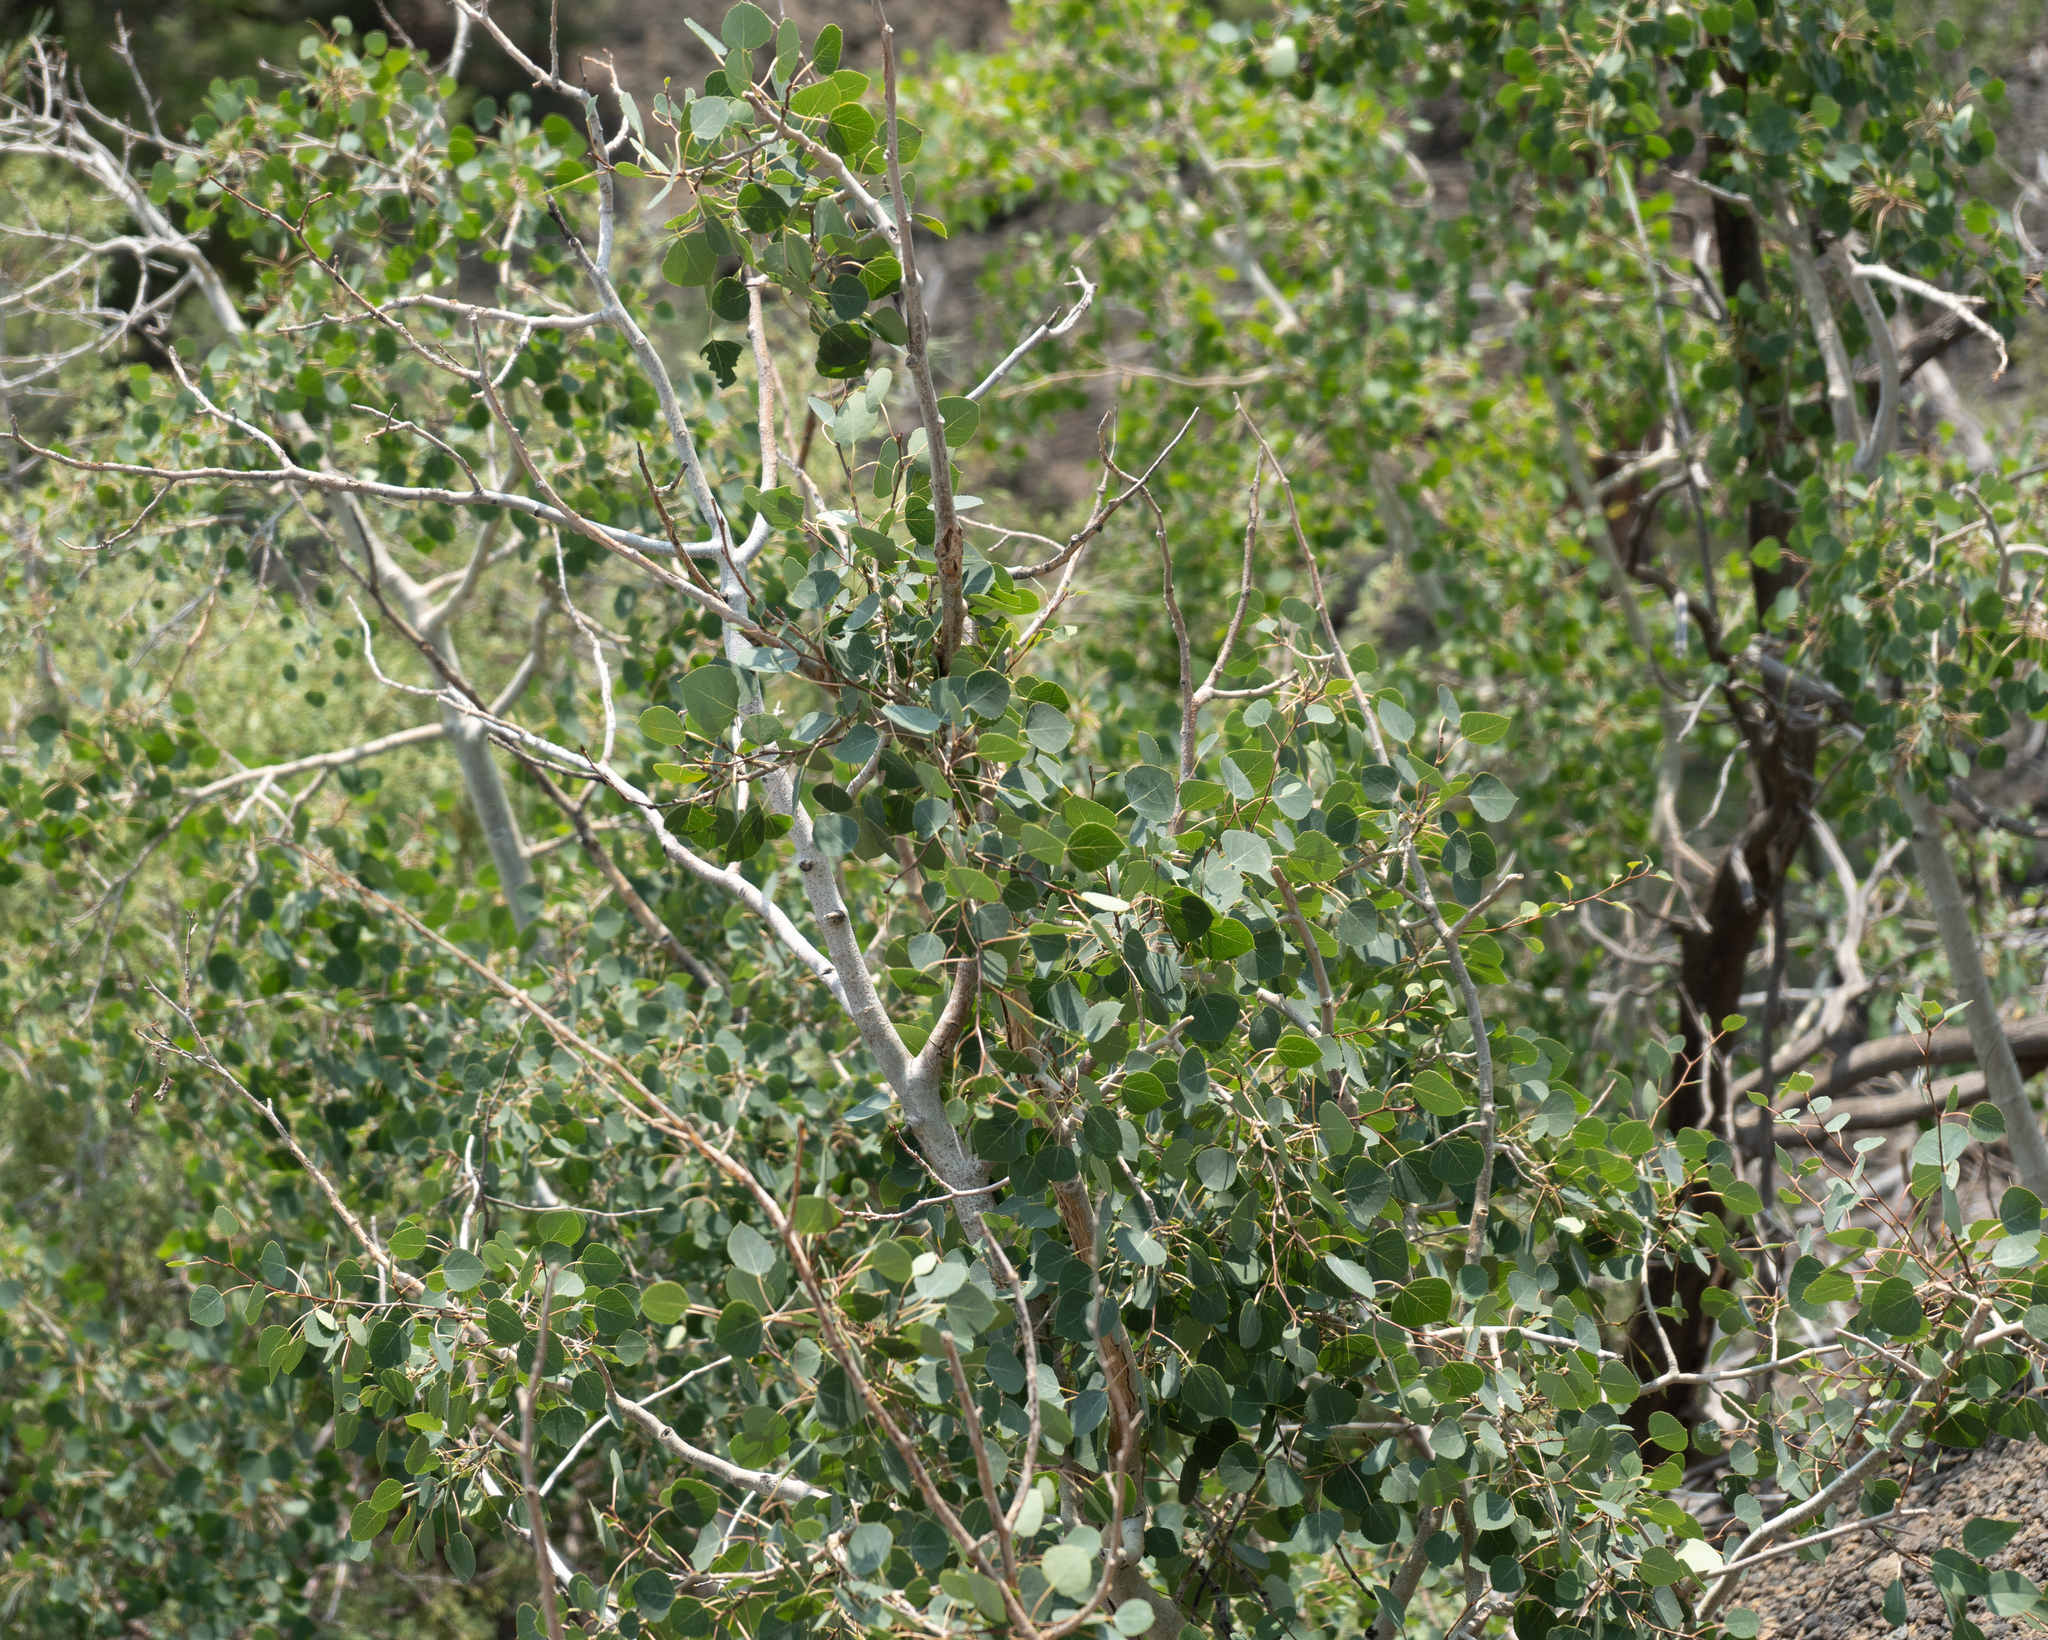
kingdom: Plantae
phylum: Tracheophyta
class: Magnoliopsida
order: Malpighiales
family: Salicaceae
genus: Populus
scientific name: Populus tremuloides
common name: Quaking aspen
